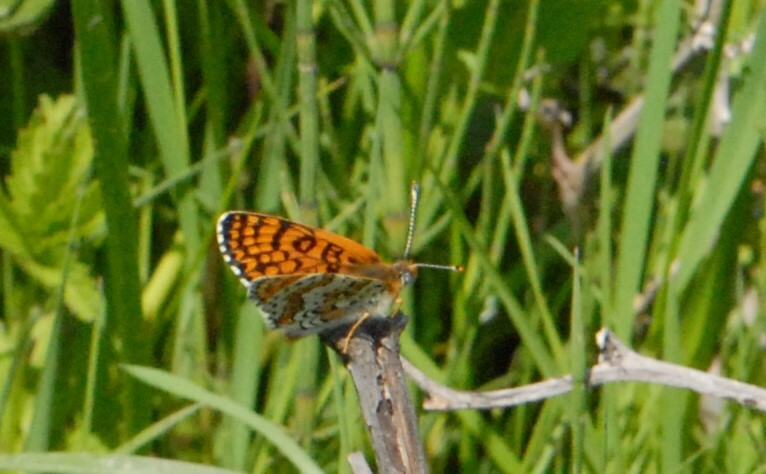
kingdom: Animalia
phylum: Arthropoda
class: Insecta
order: Lepidoptera
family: Nymphalidae
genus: Melitaea
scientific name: Melitaea cinxia
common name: Glanville fritillary
